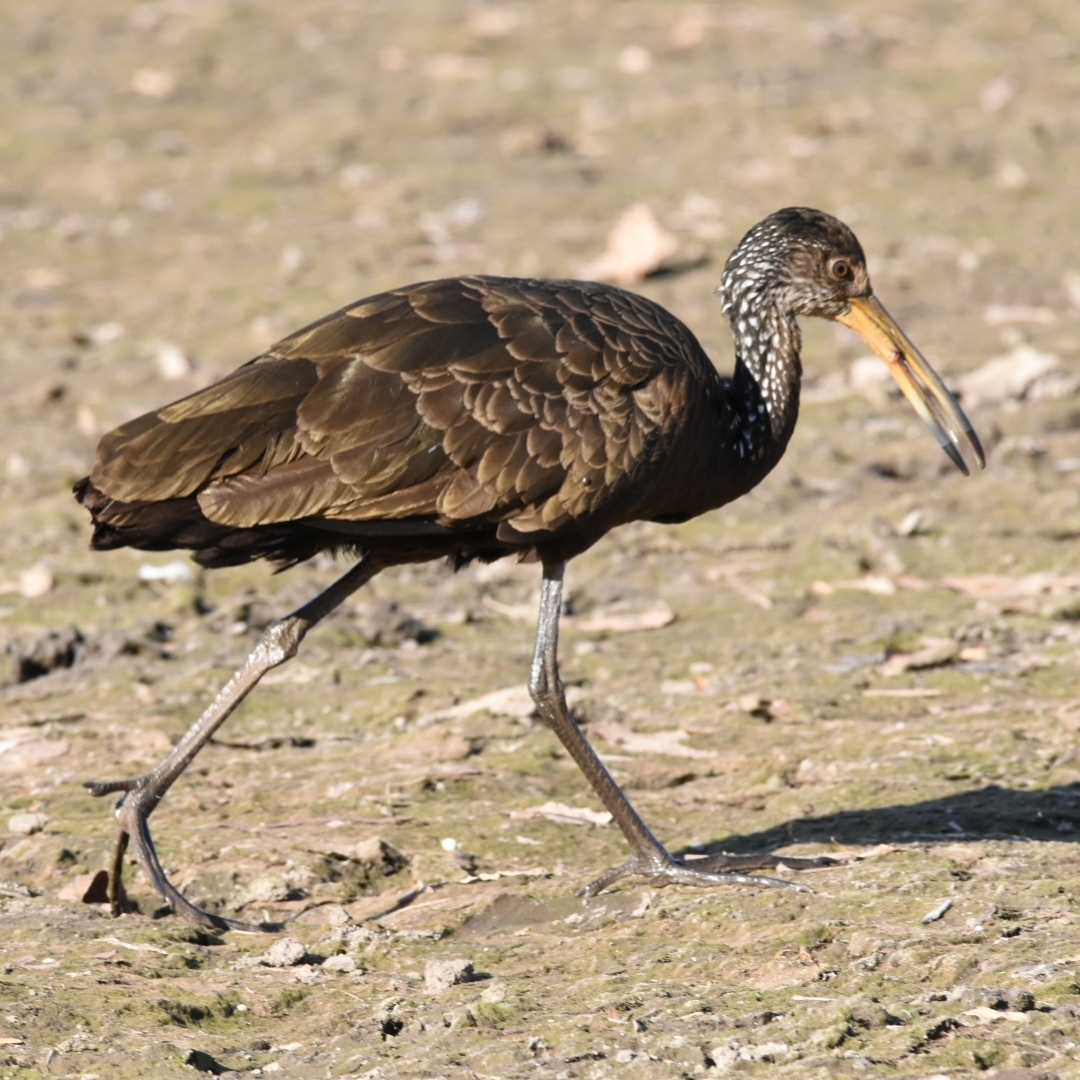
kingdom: Animalia
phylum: Chordata
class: Aves
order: Gruiformes
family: Aramidae
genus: Aramus
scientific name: Aramus guarauna
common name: Limpkin
